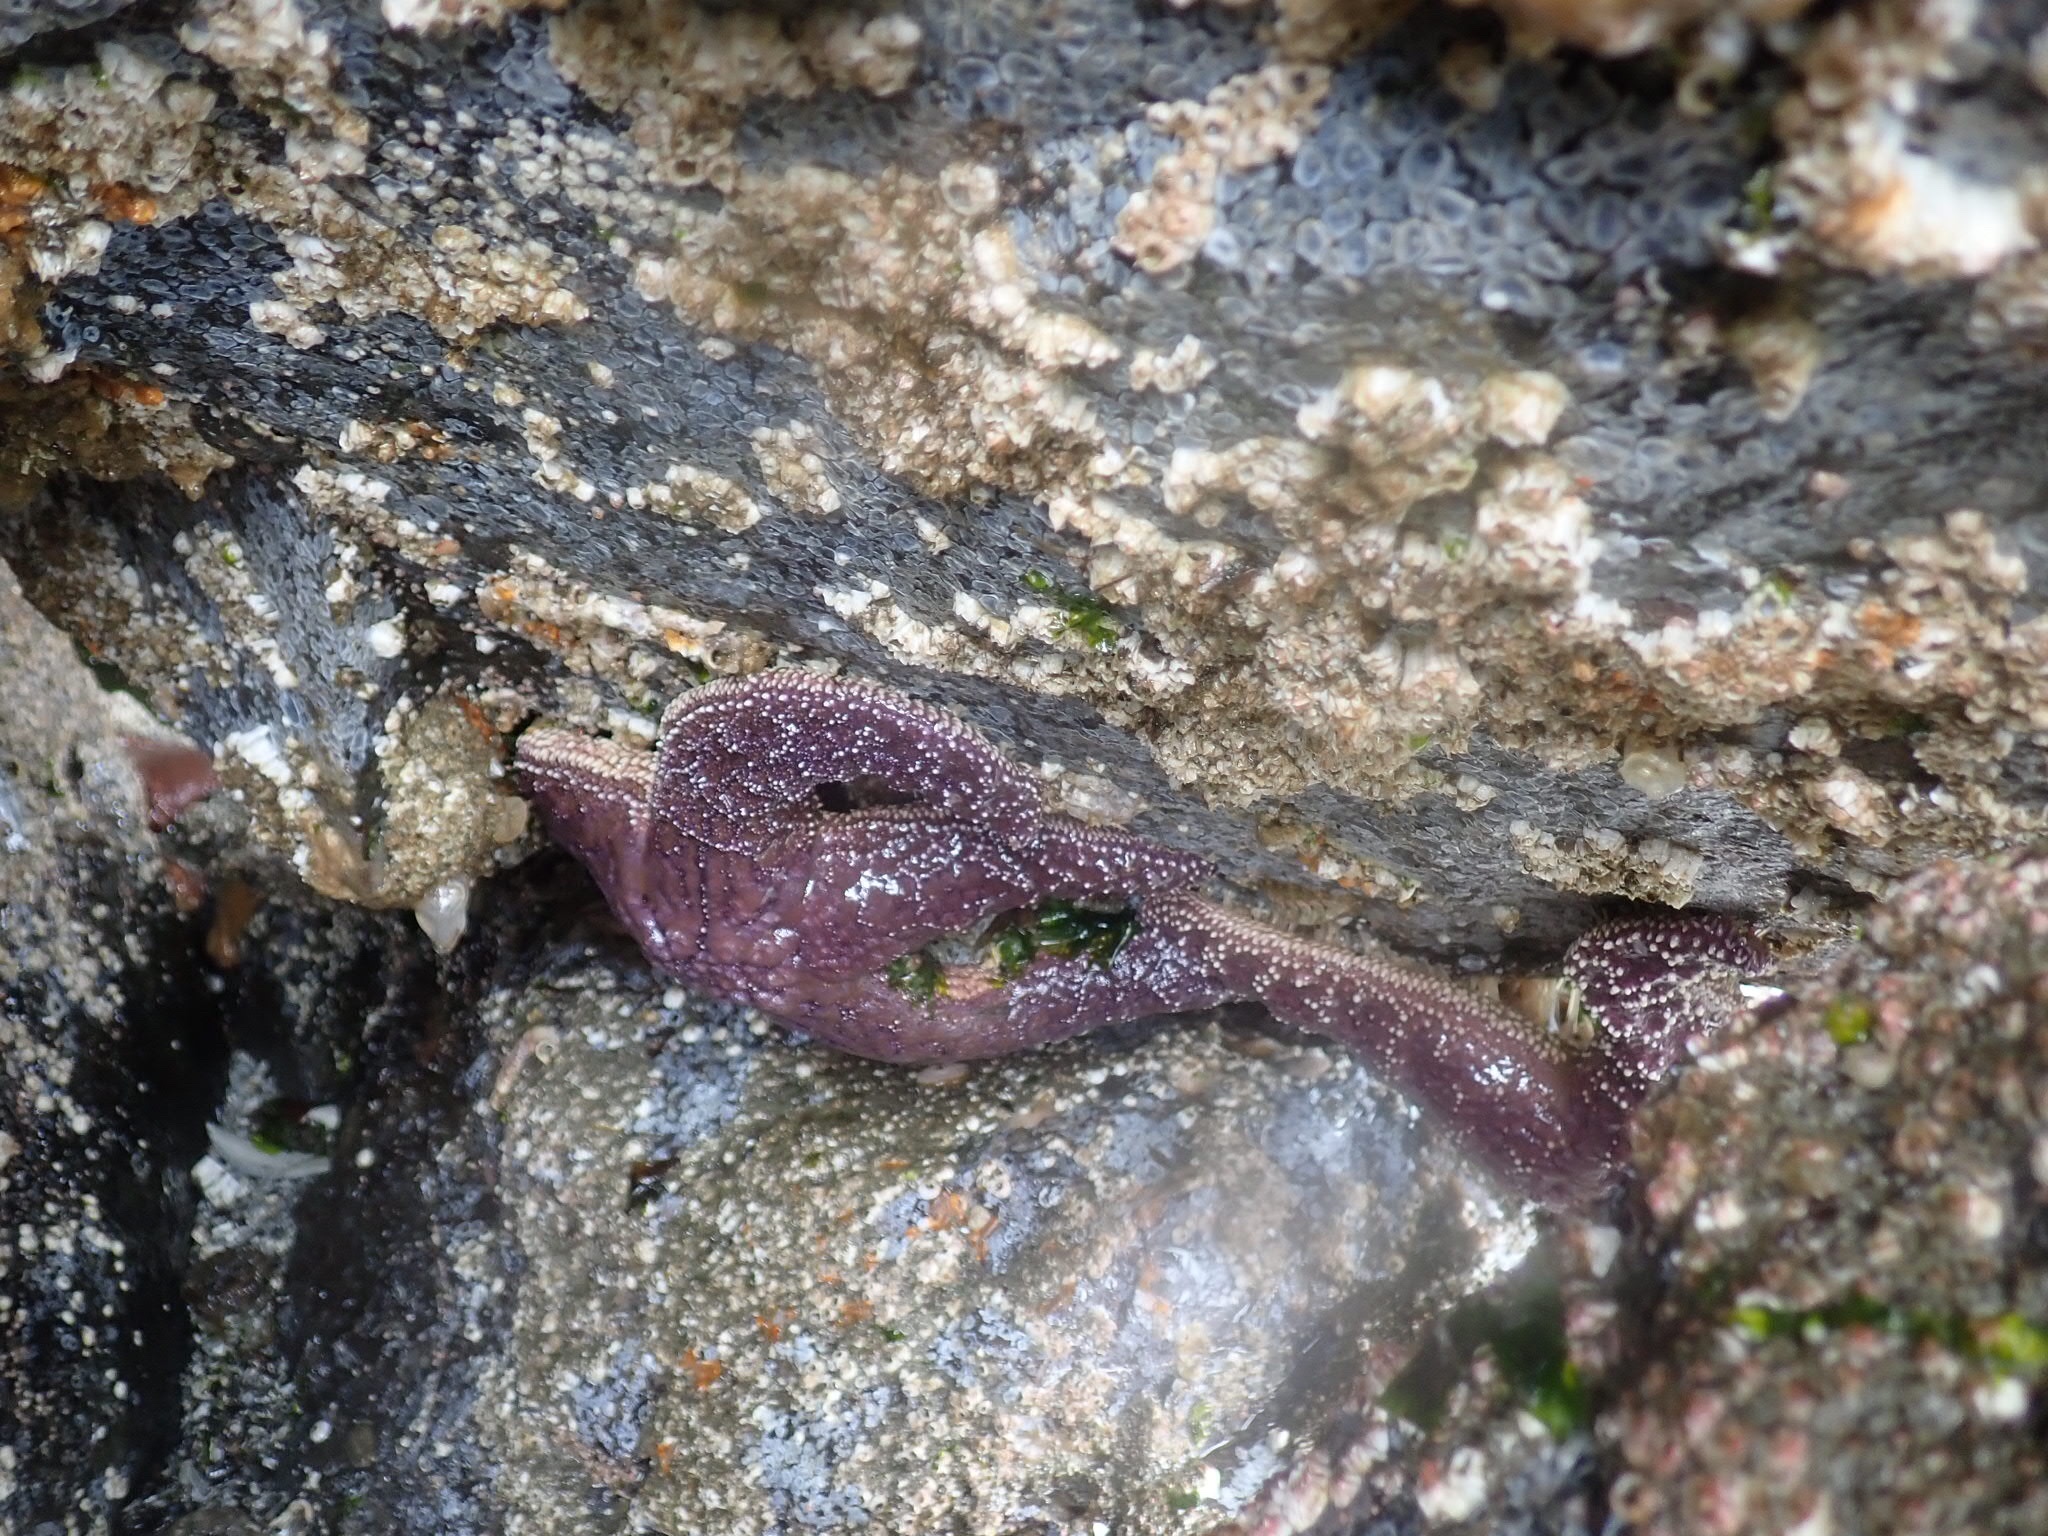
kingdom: Animalia
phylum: Echinodermata
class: Asteroidea
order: Forcipulatida
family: Asteriidae
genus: Pisaster
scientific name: Pisaster ochraceus
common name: Ochre stars
